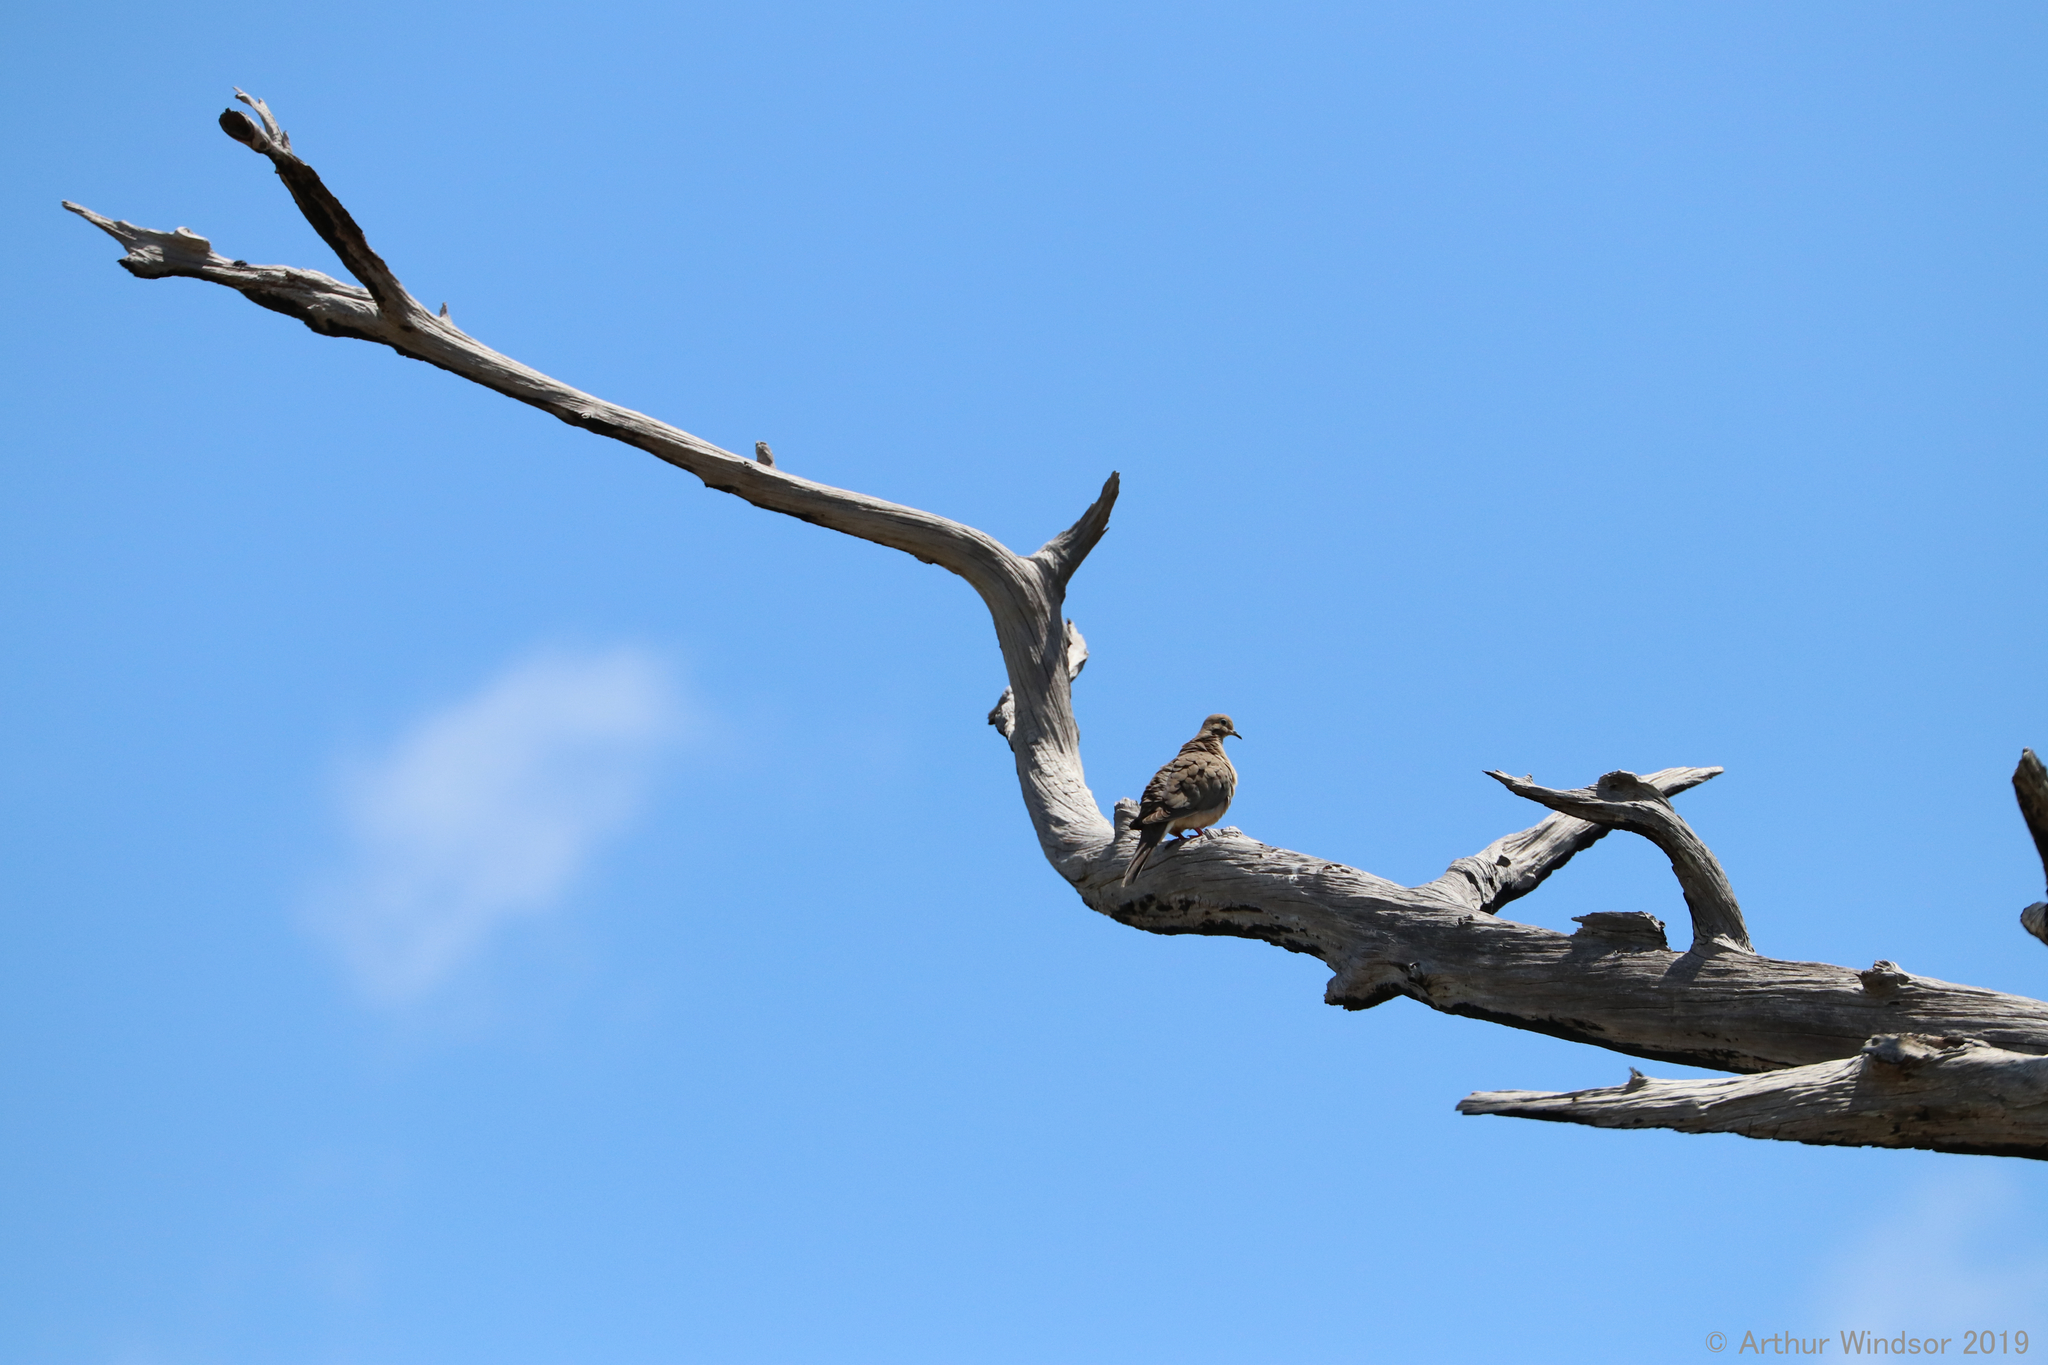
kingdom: Animalia
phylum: Chordata
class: Aves
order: Columbiformes
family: Columbidae
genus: Zenaida
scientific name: Zenaida macroura
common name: Mourning dove
